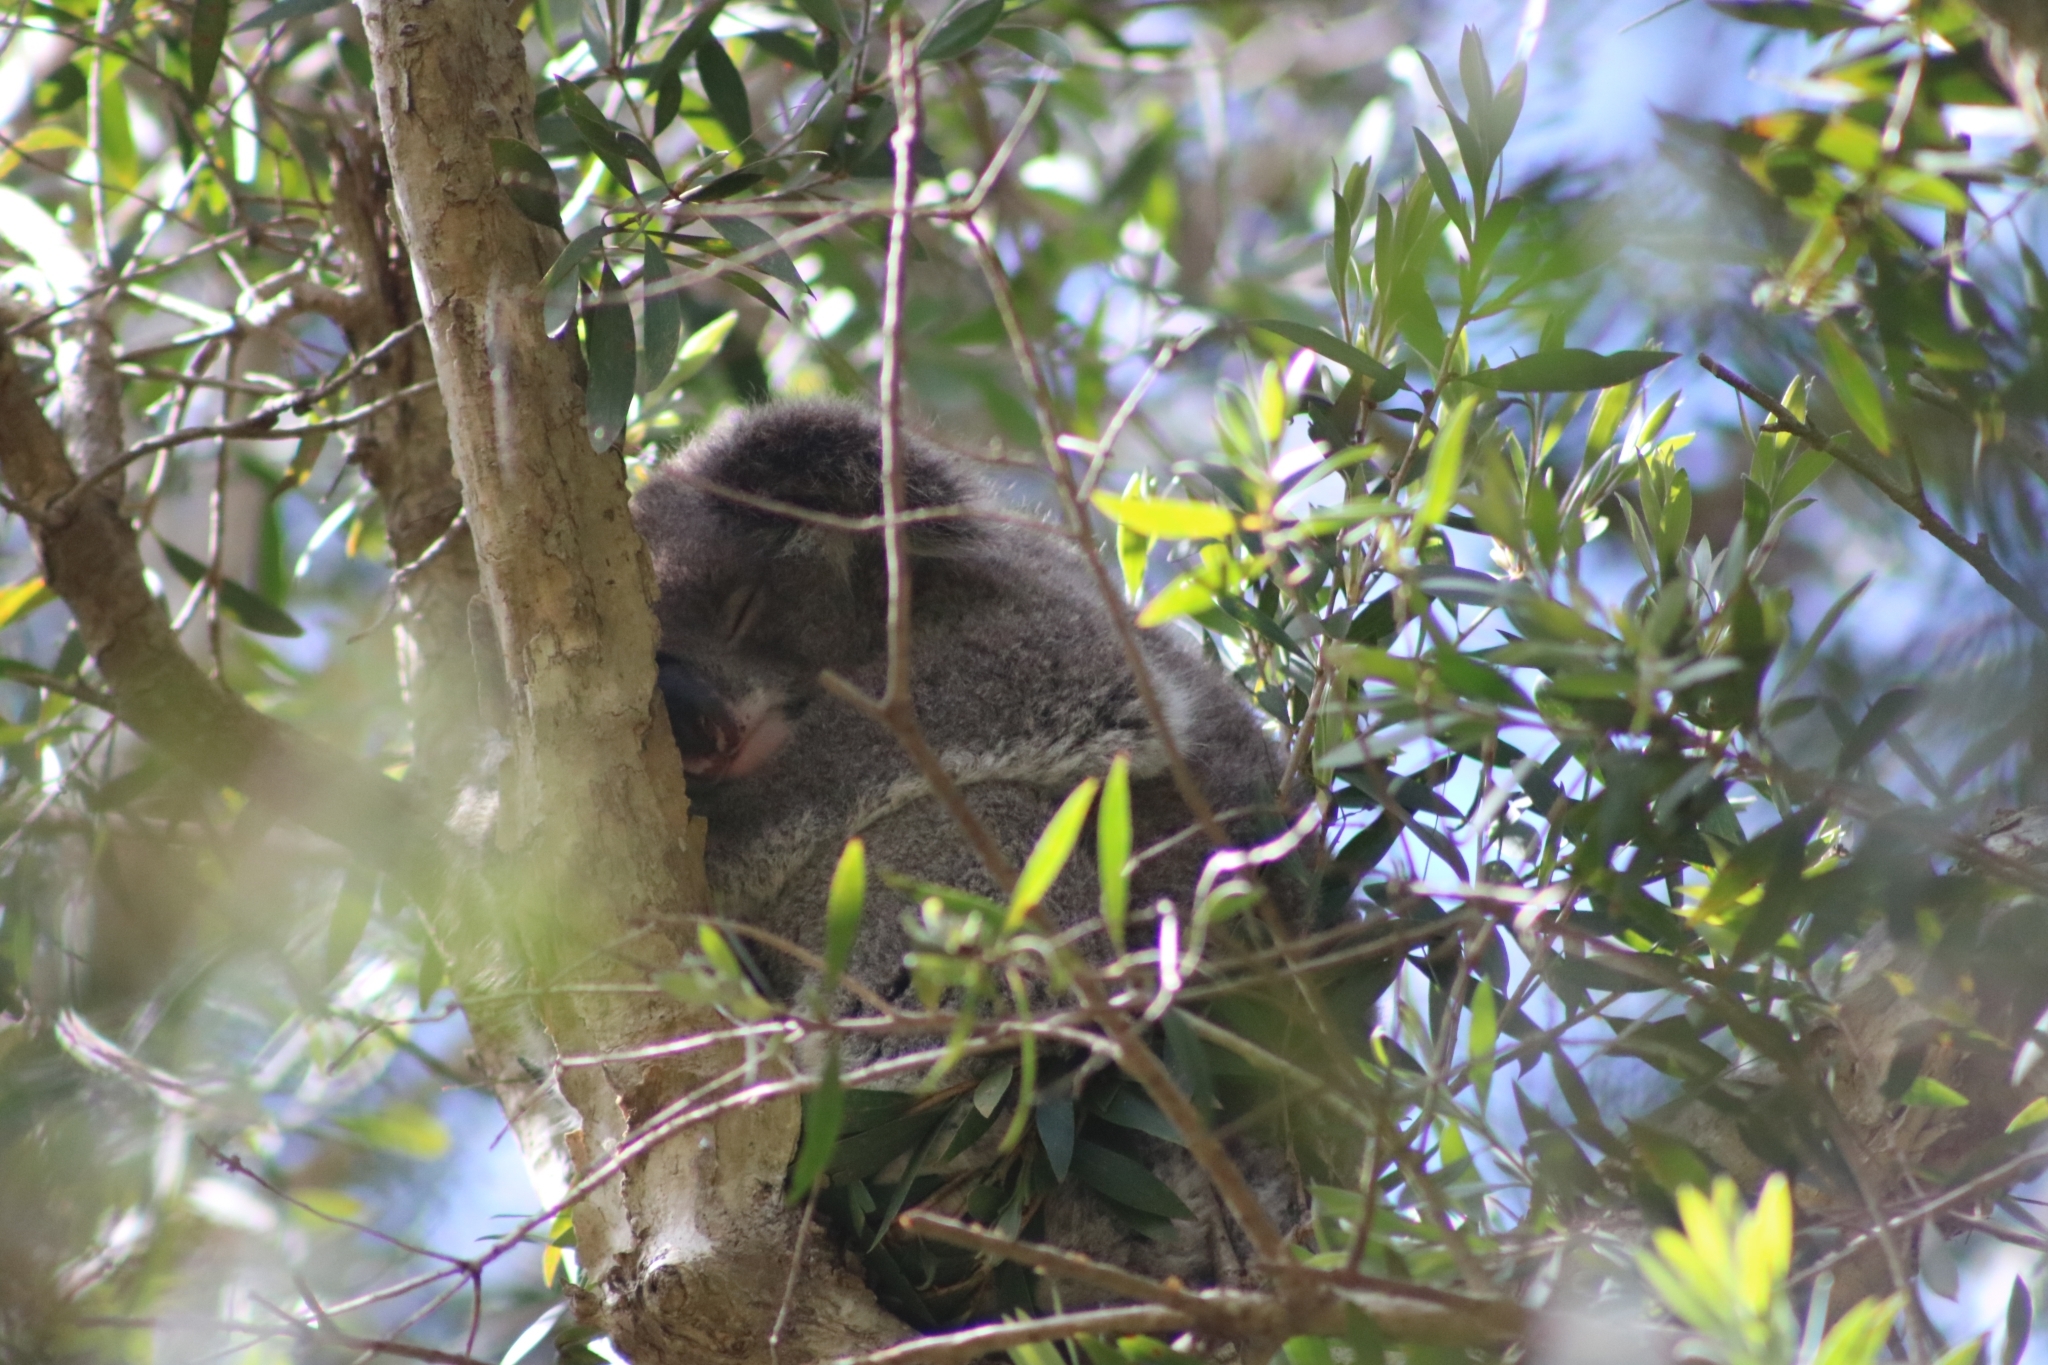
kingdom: Animalia
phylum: Chordata
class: Mammalia
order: Diprotodontia
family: Phascolarctidae
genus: Phascolarctos
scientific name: Phascolarctos cinereus
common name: Koala
